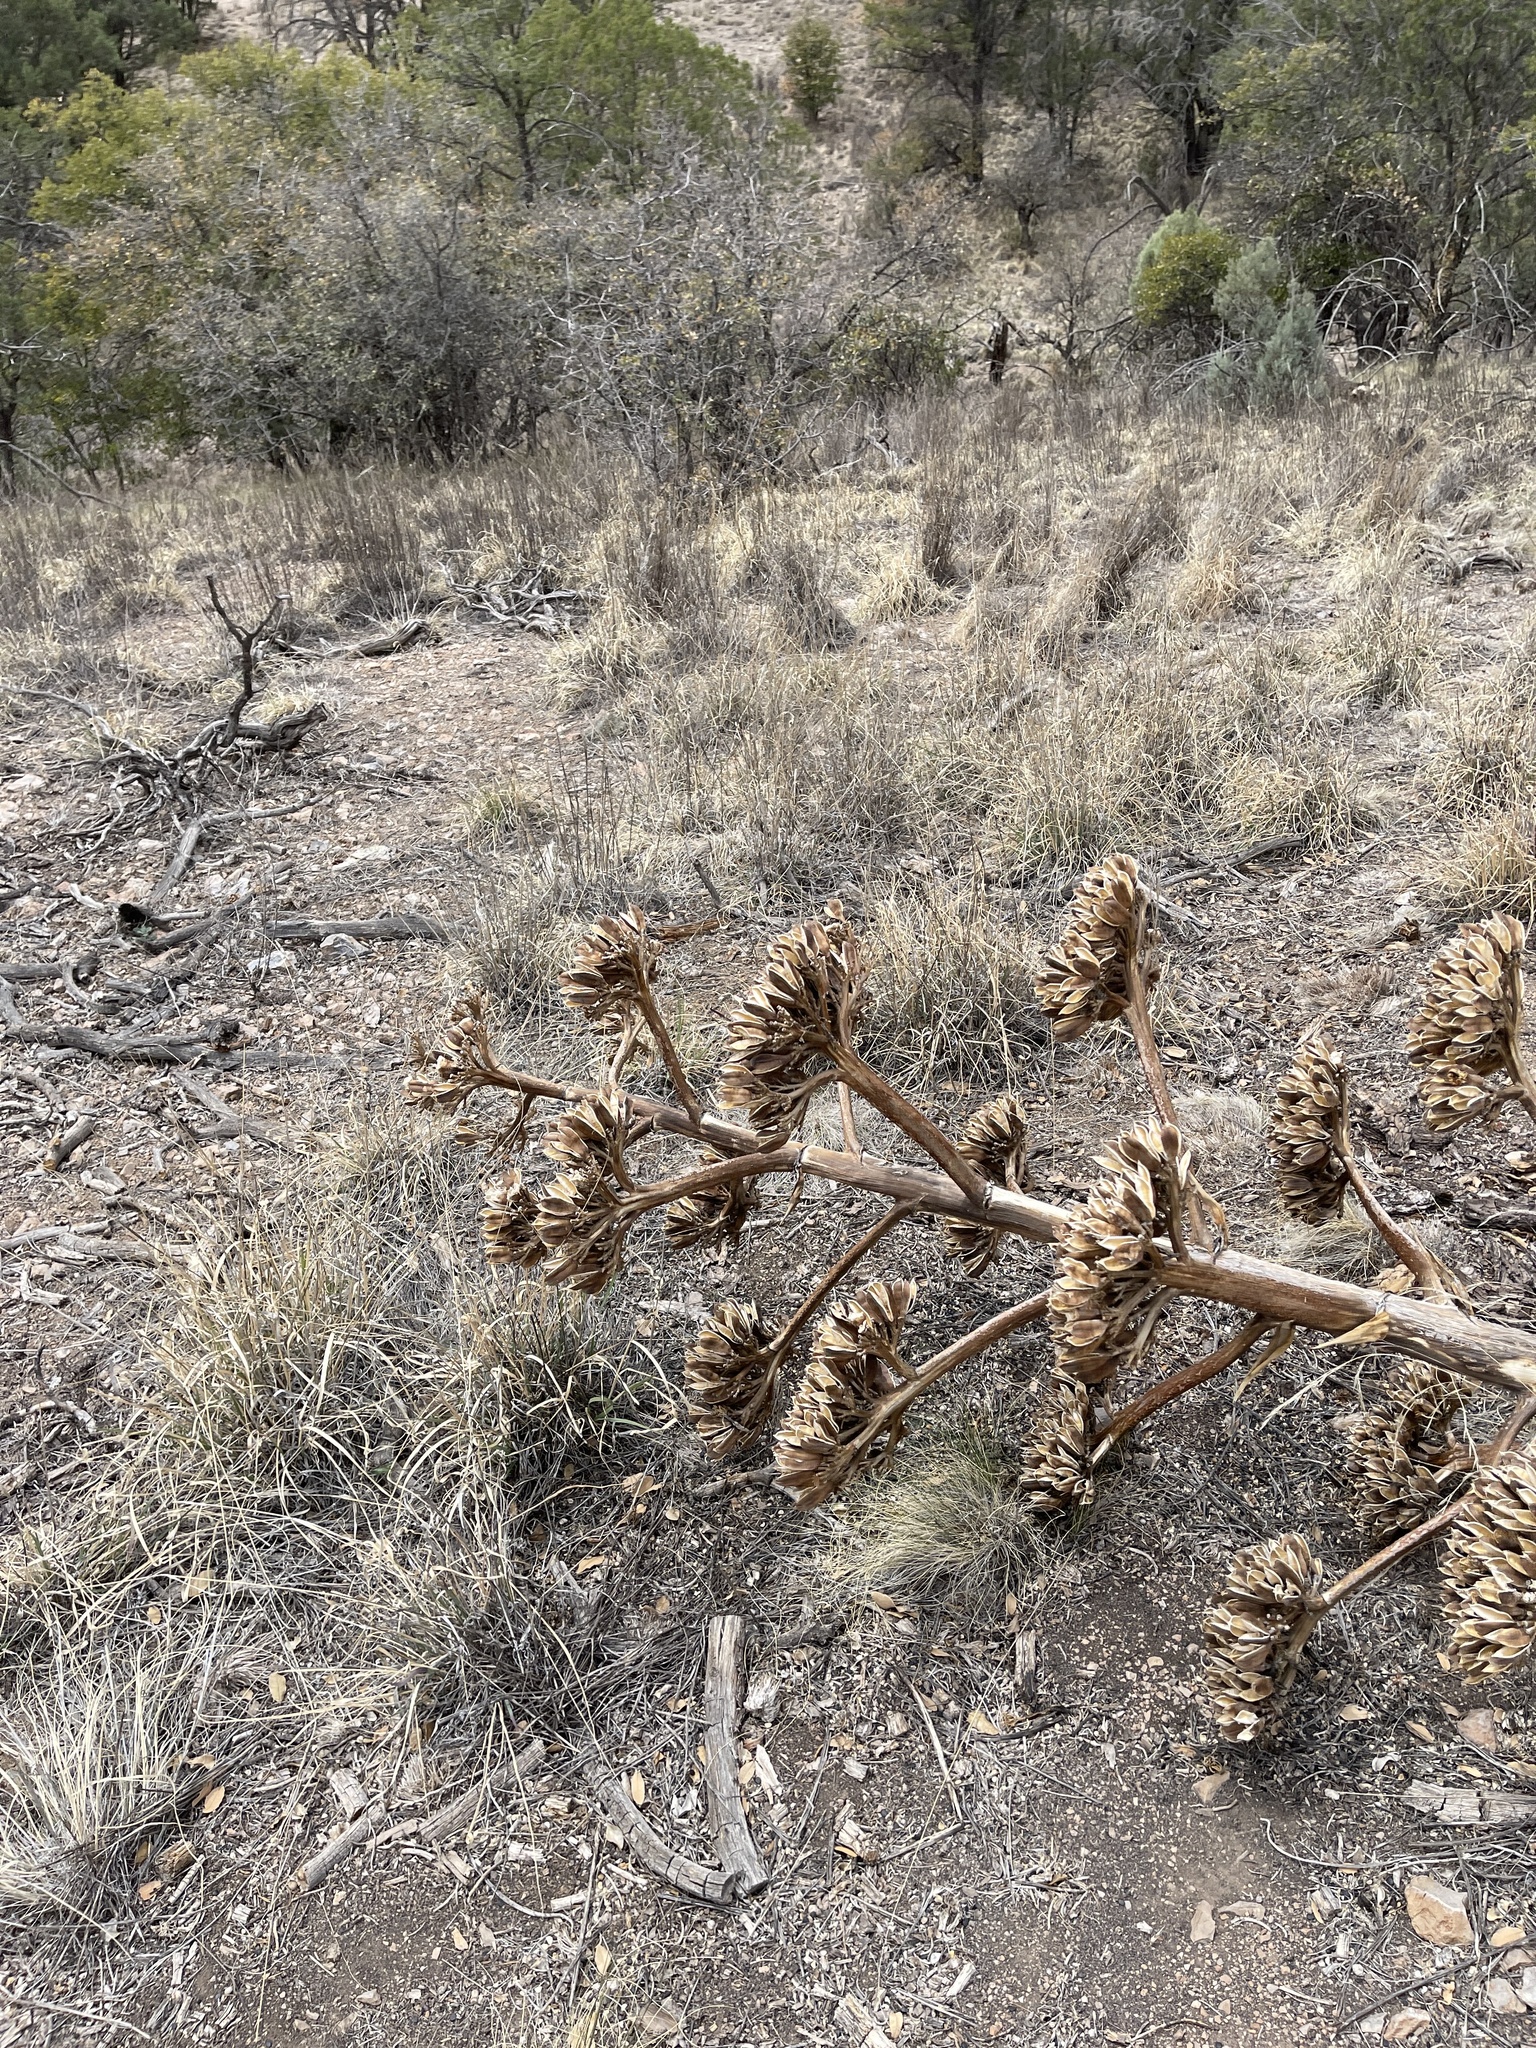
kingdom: Plantae
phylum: Tracheophyta
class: Liliopsida
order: Asparagales
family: Asparagaceae
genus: Agave
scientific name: Agave parryi
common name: Parry's agave
